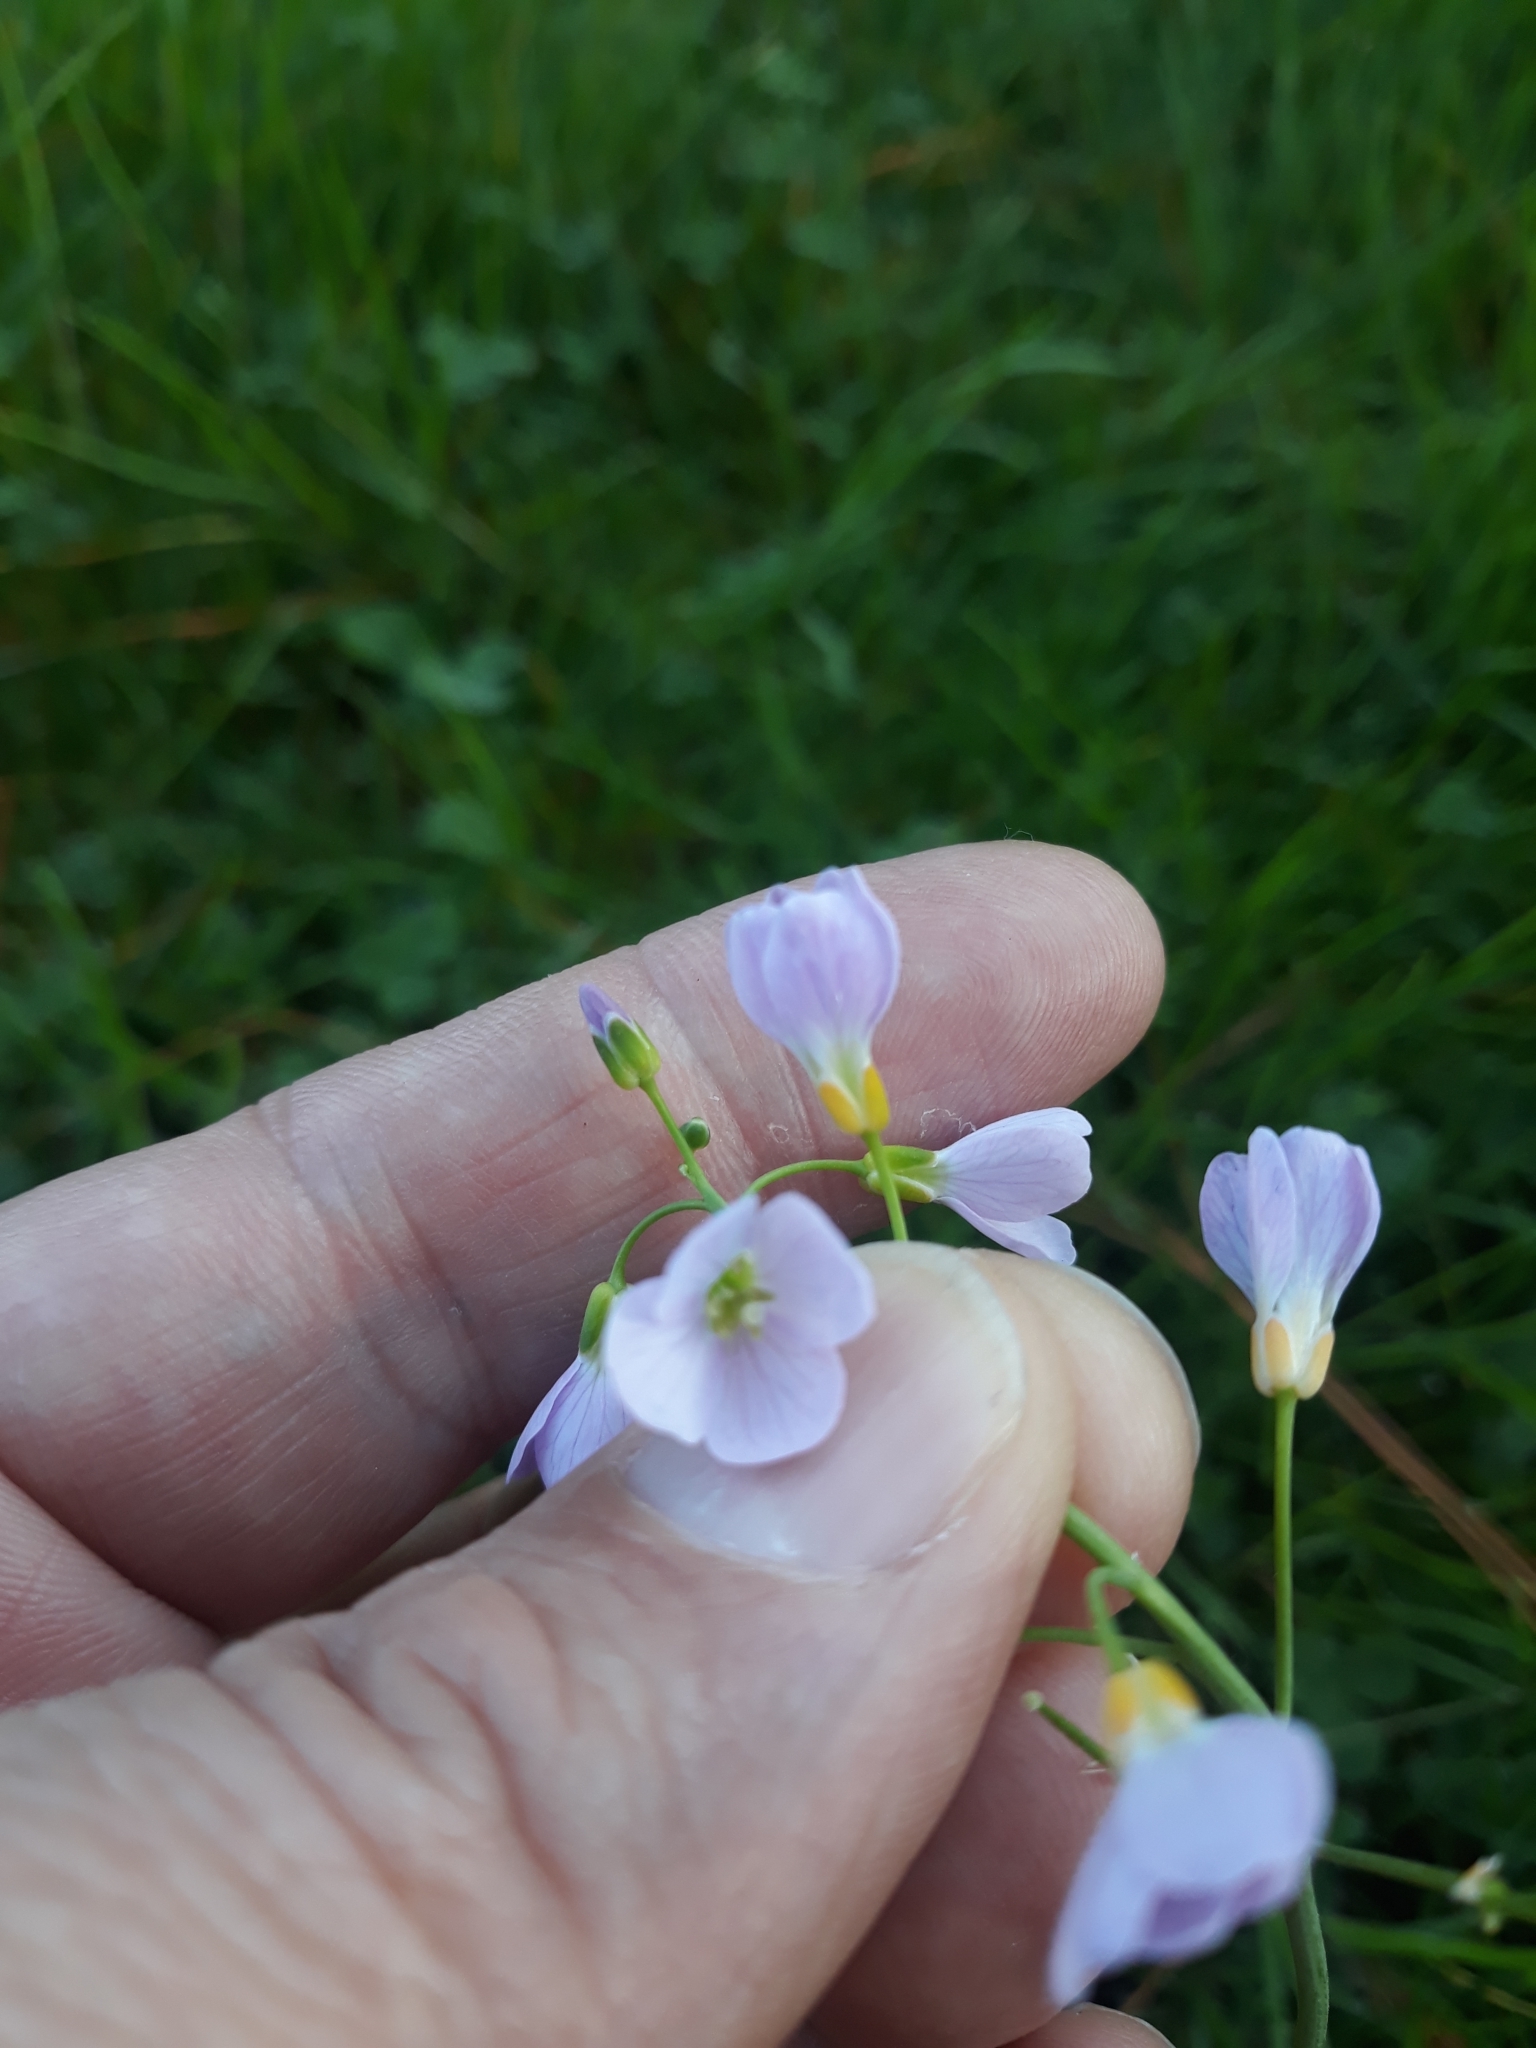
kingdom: Plantae
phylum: Tracheophyta
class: Magnoliopsida
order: Brassicales
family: Brassicaceae
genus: Cardamine
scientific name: Cardamine pratensis
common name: Cuckoo flower
